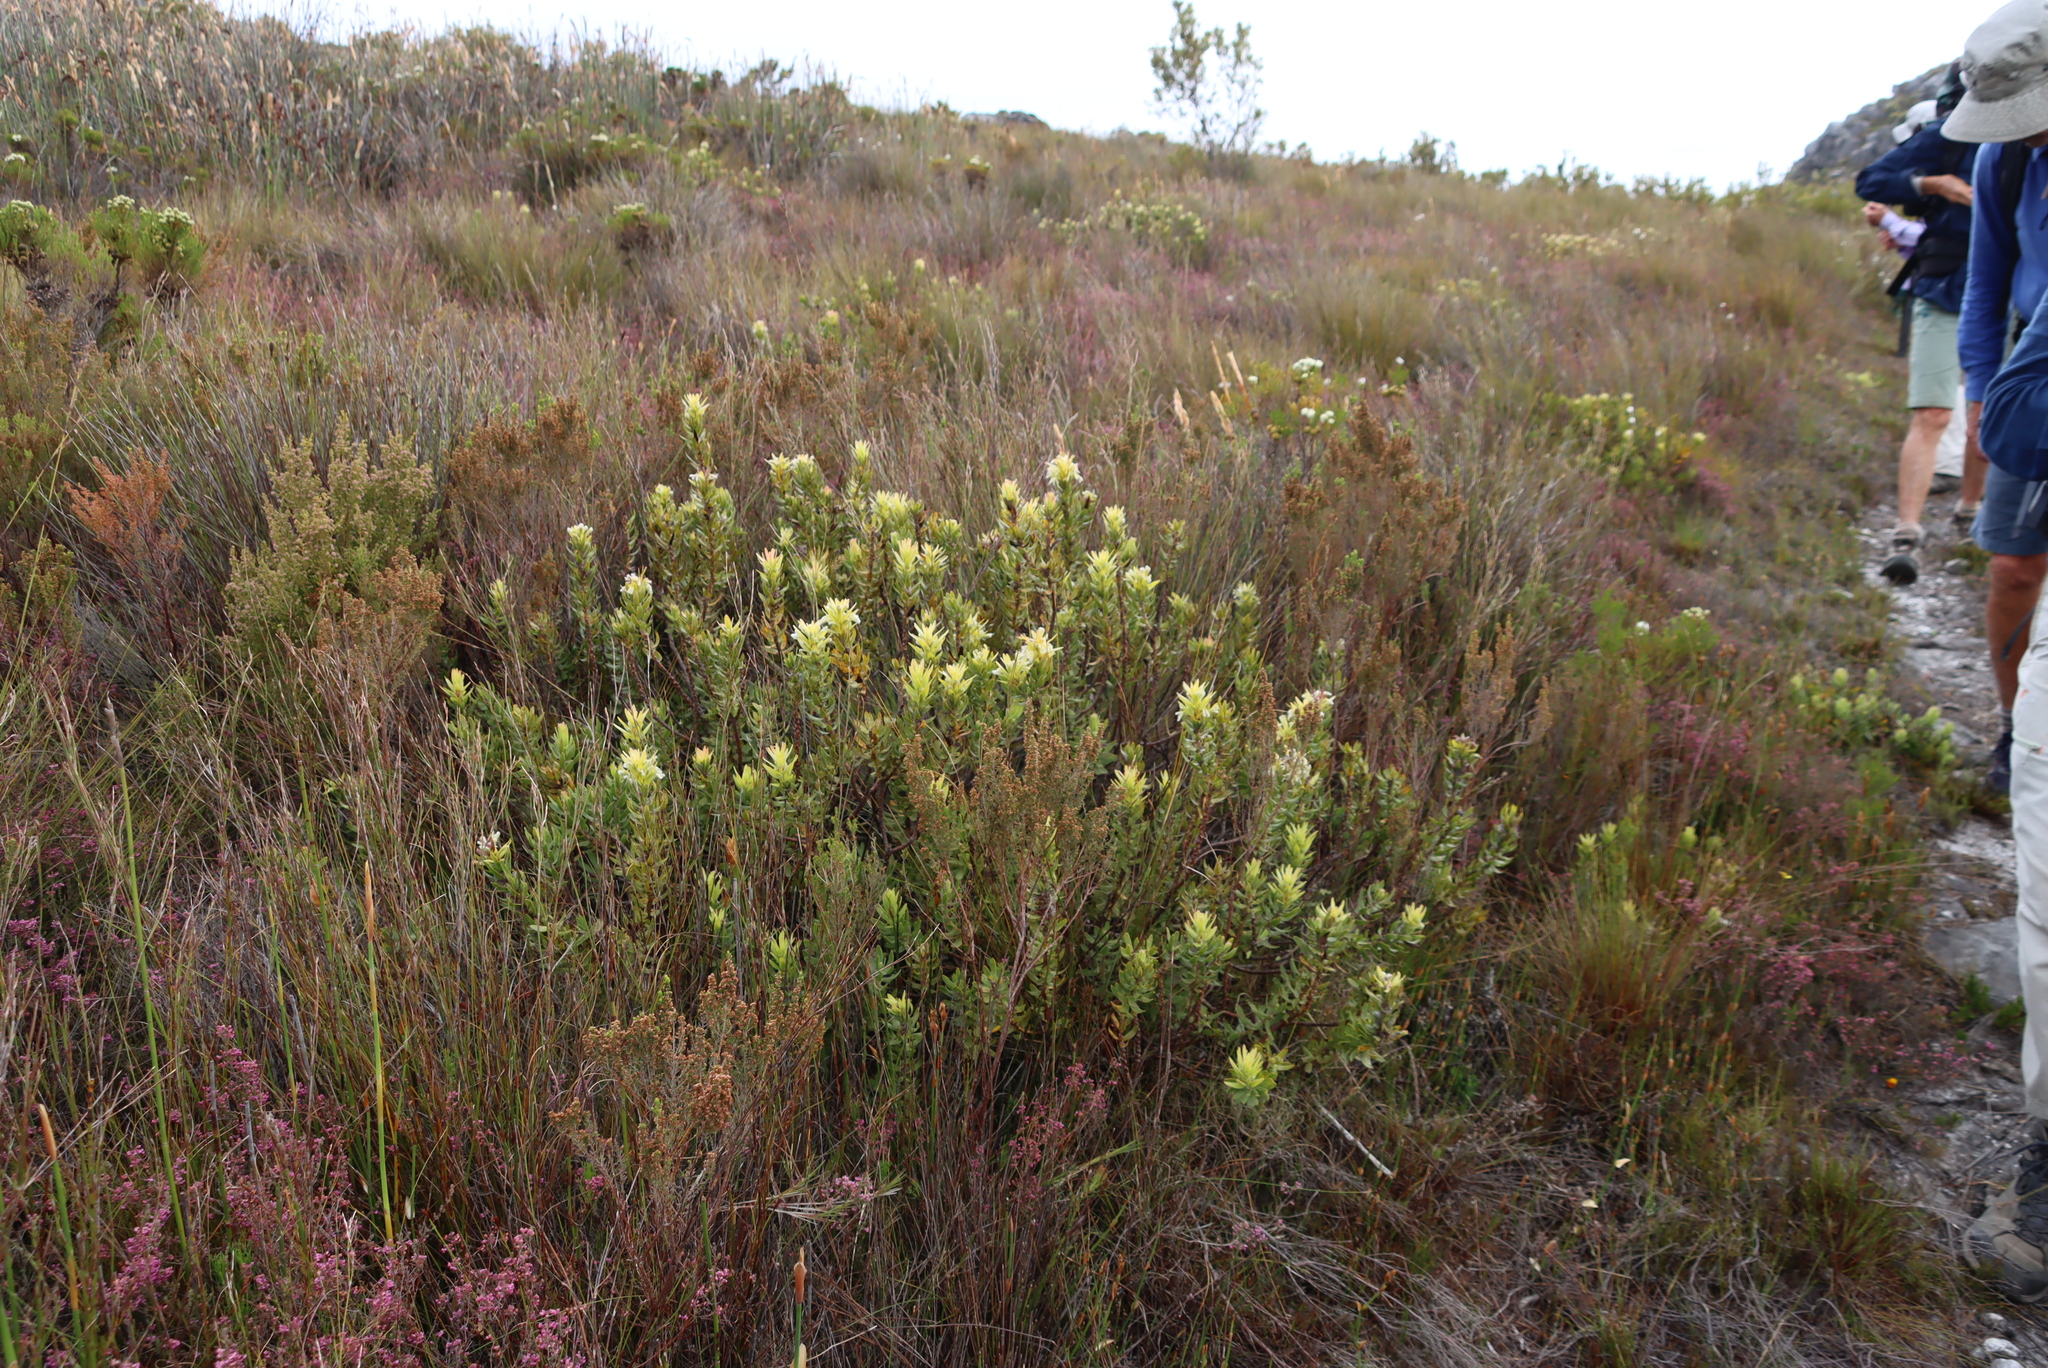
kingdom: Plantae
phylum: Tracheophyta
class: Magnoliopsida
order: Proteales
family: Proteaceae
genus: Mimetes
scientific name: Mimetes cucullatus
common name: Common pagoda
